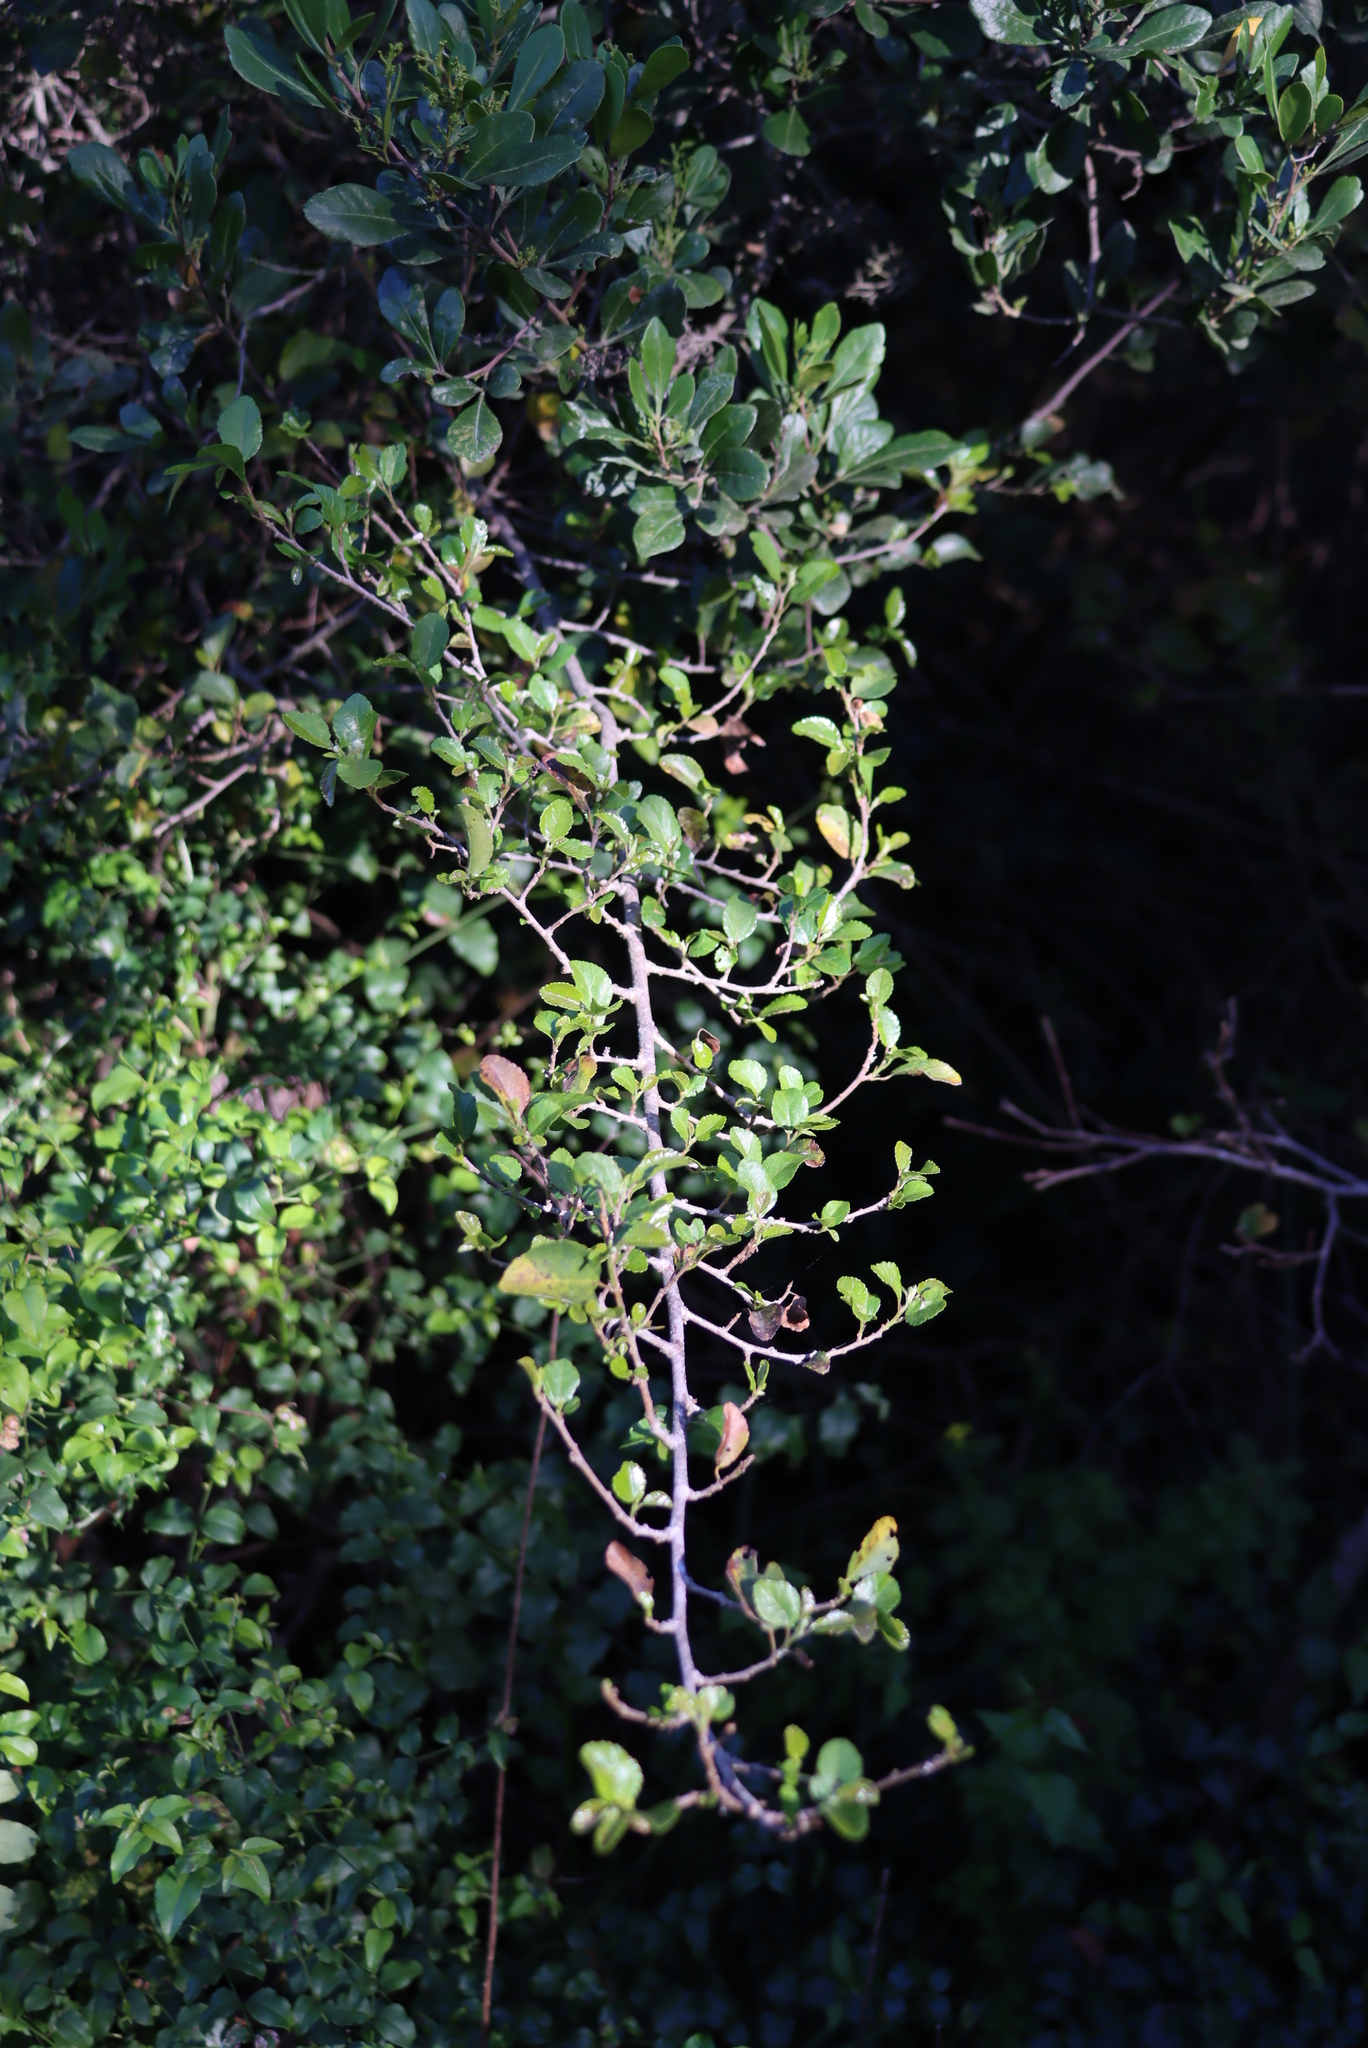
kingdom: Plantae
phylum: Tracheophyta
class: Magnoliopsida
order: Malvales
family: Malvaceae
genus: Grewia
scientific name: Grewia occidentalis
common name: Crossberry
